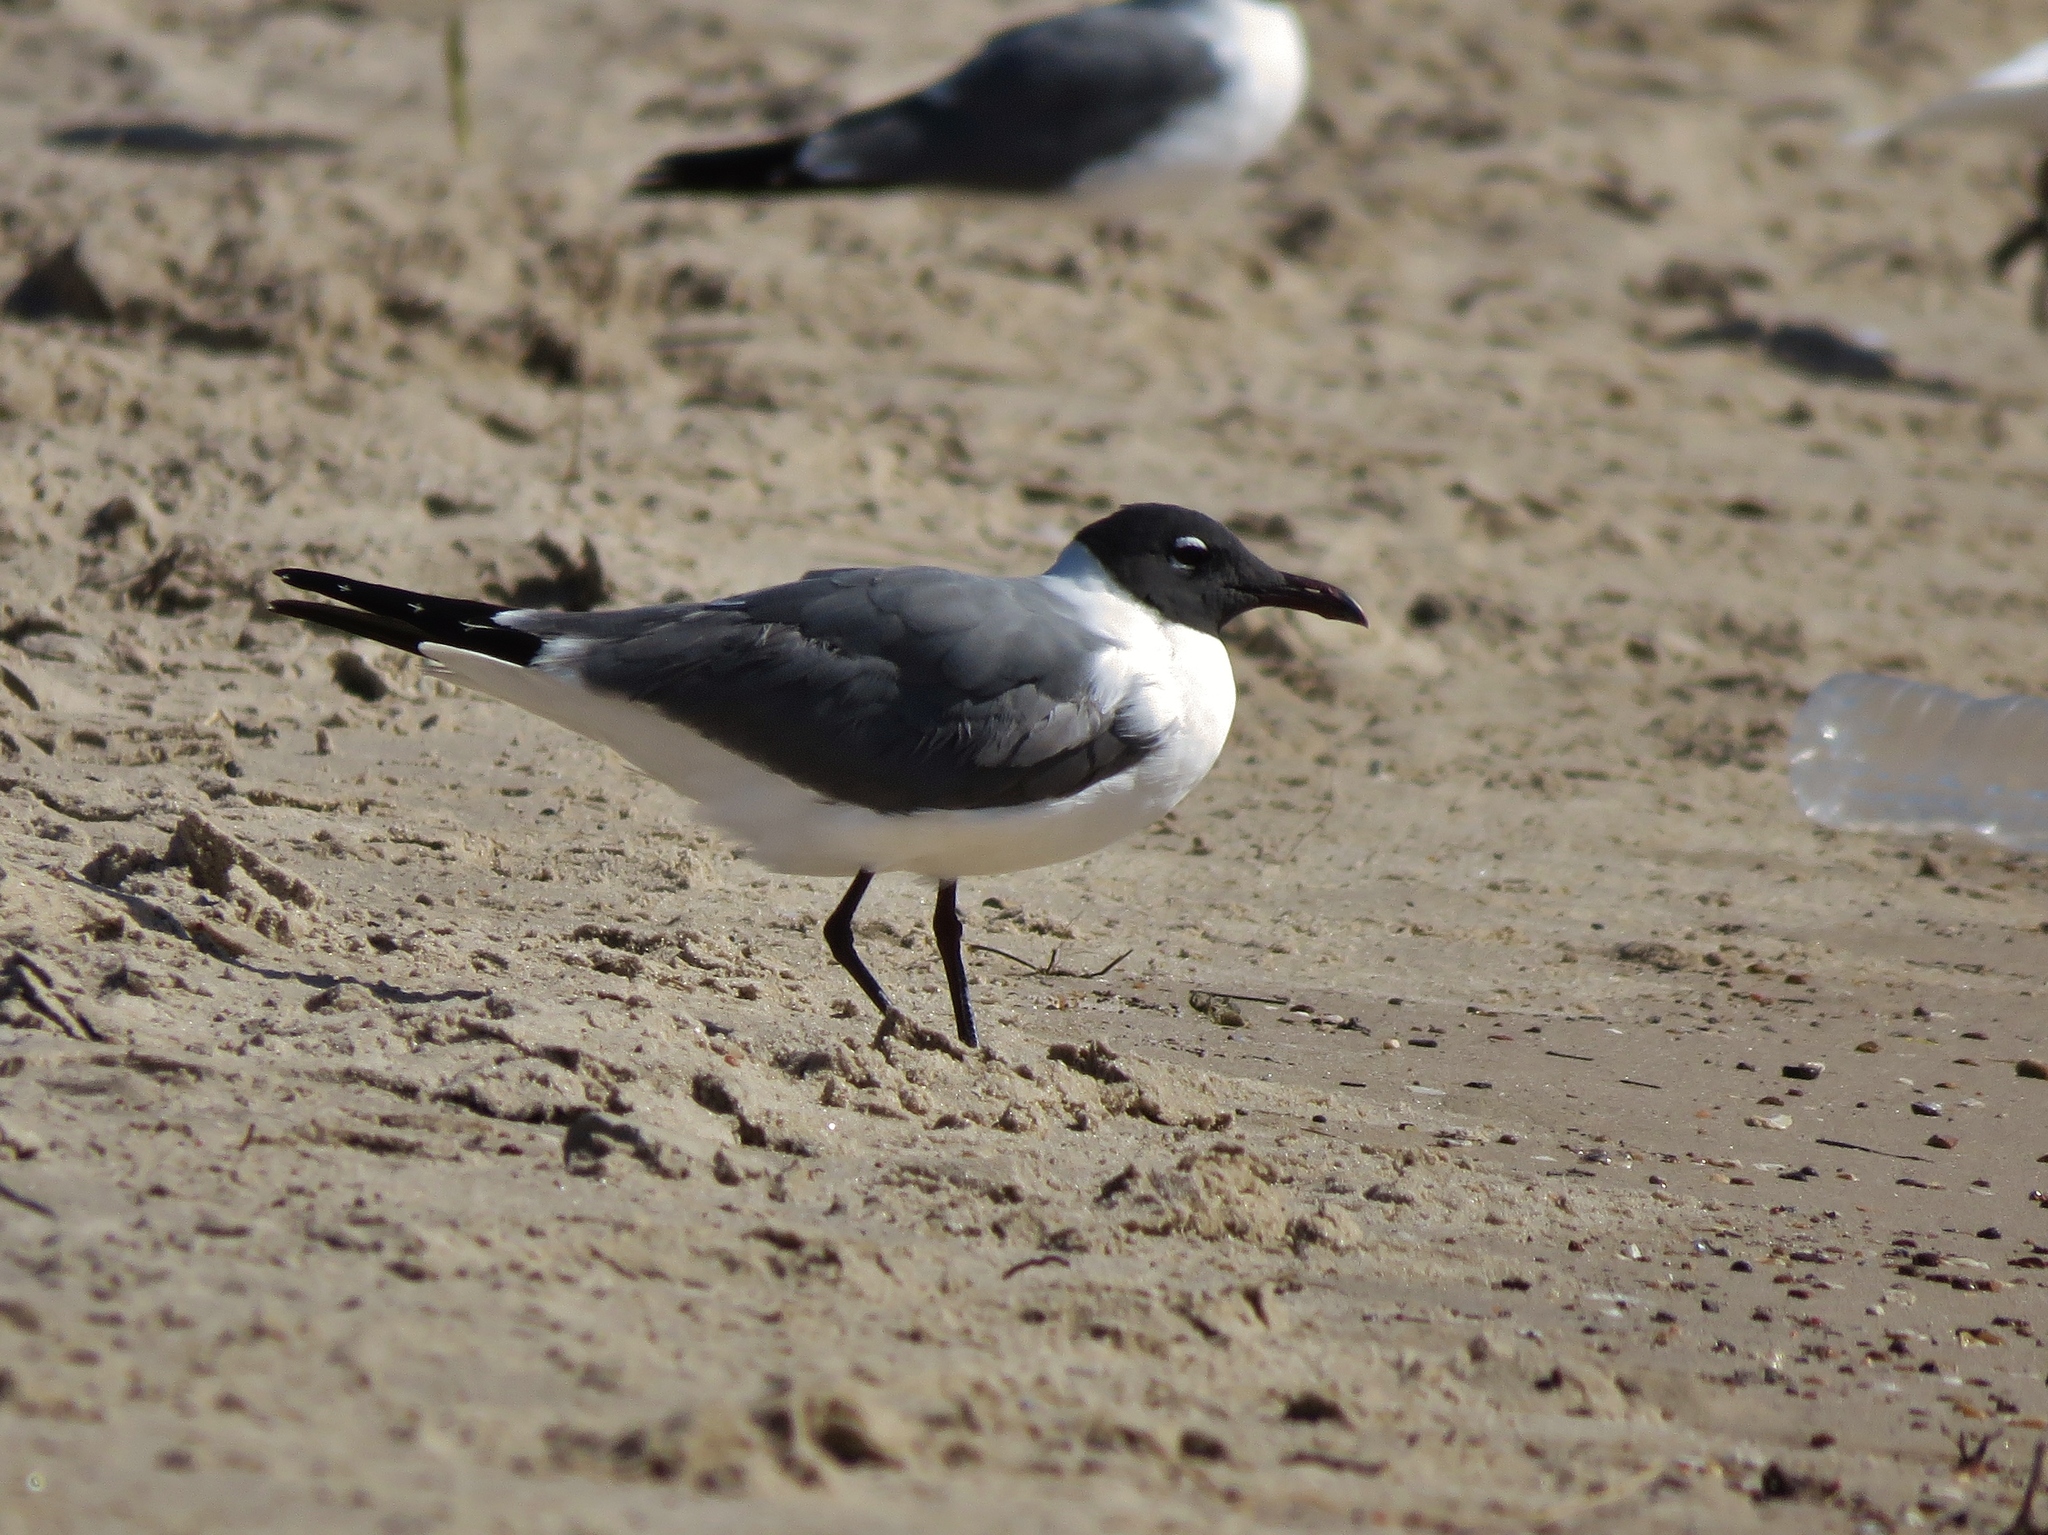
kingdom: Animalia
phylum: Chordata
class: Aves
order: Charadriiformes
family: Laridae
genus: Leucophaeus
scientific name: Leucophaeus atricilla
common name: Laughing gull
